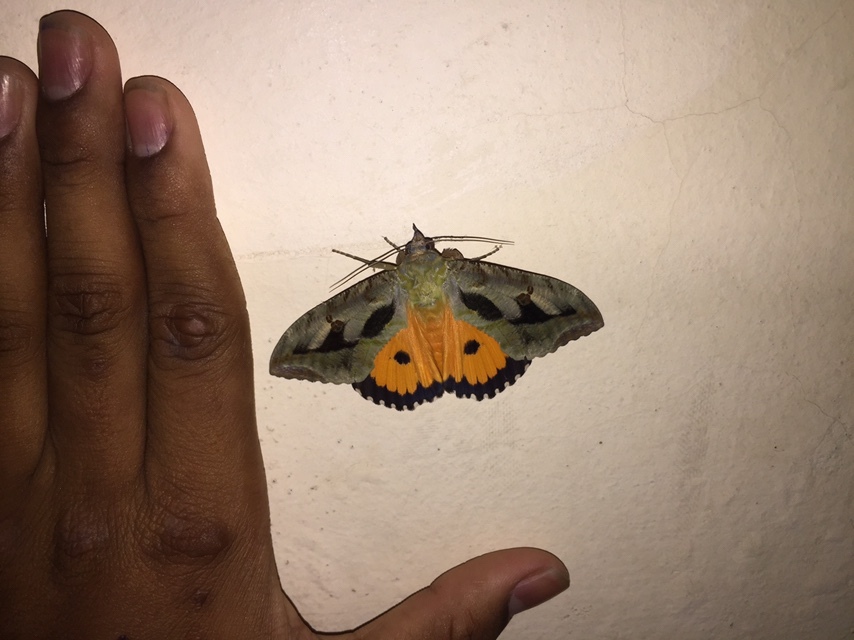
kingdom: Animalia
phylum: Arthropoda
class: Insecta
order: Lepidoptera
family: Erebidae
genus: Eudocima
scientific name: Eudocima materna
